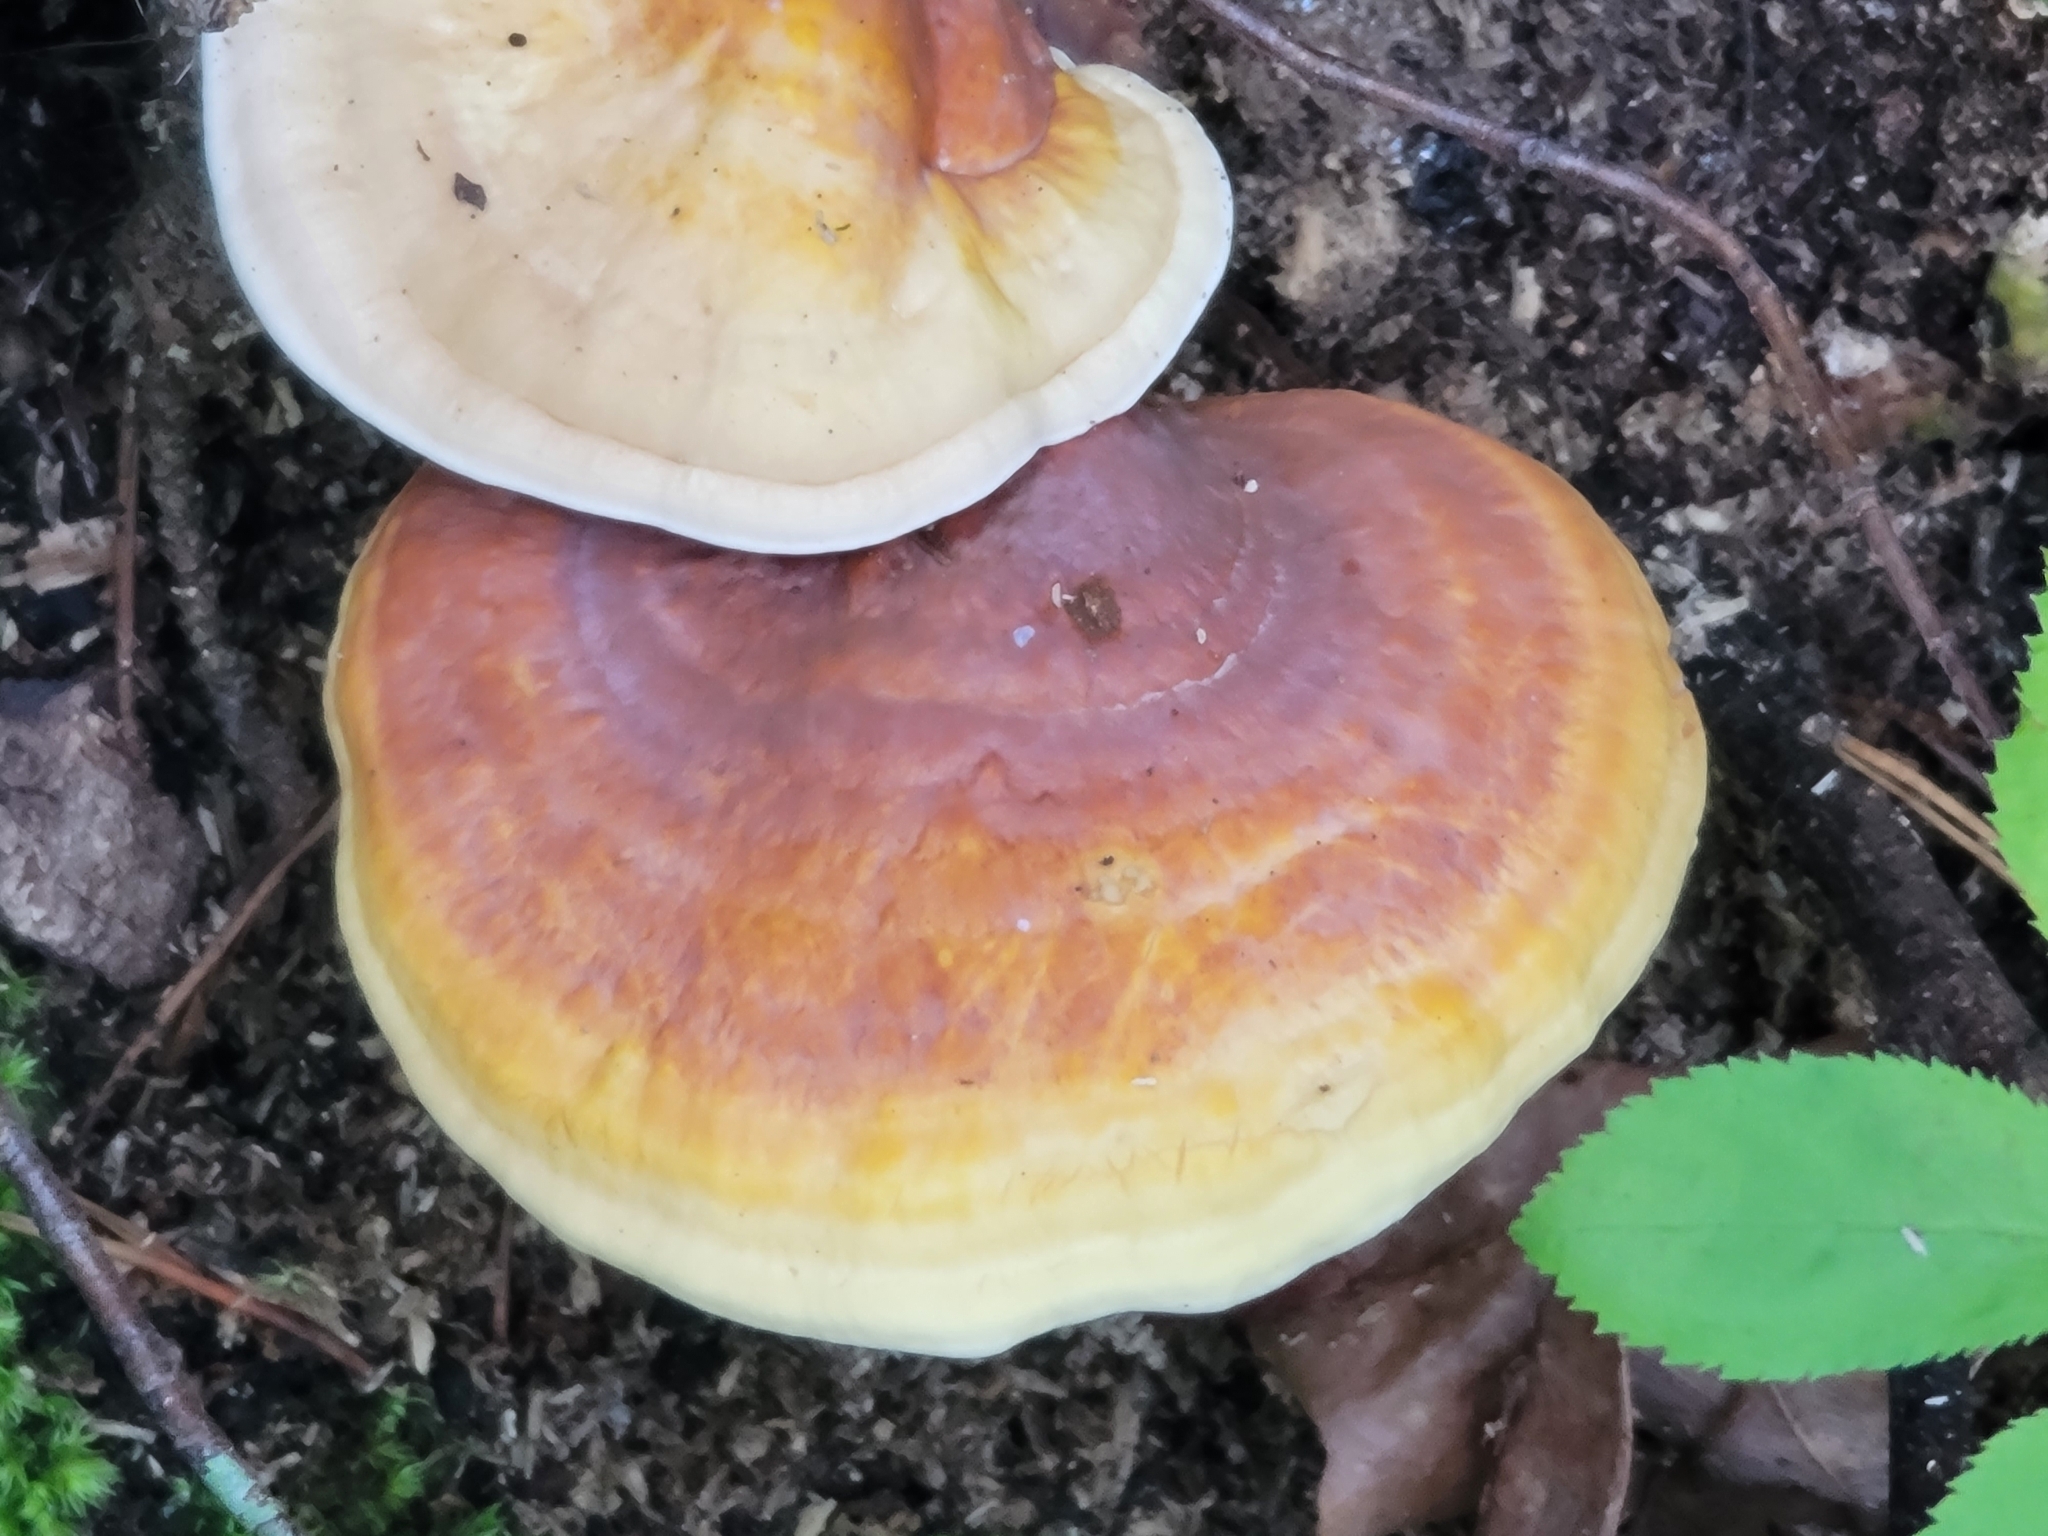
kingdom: Fungi
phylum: Basidiomycota
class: Agaricomycetes
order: Polyporales
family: Polyporaceae
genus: Ganoderma
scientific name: Ganoderma curtisii
